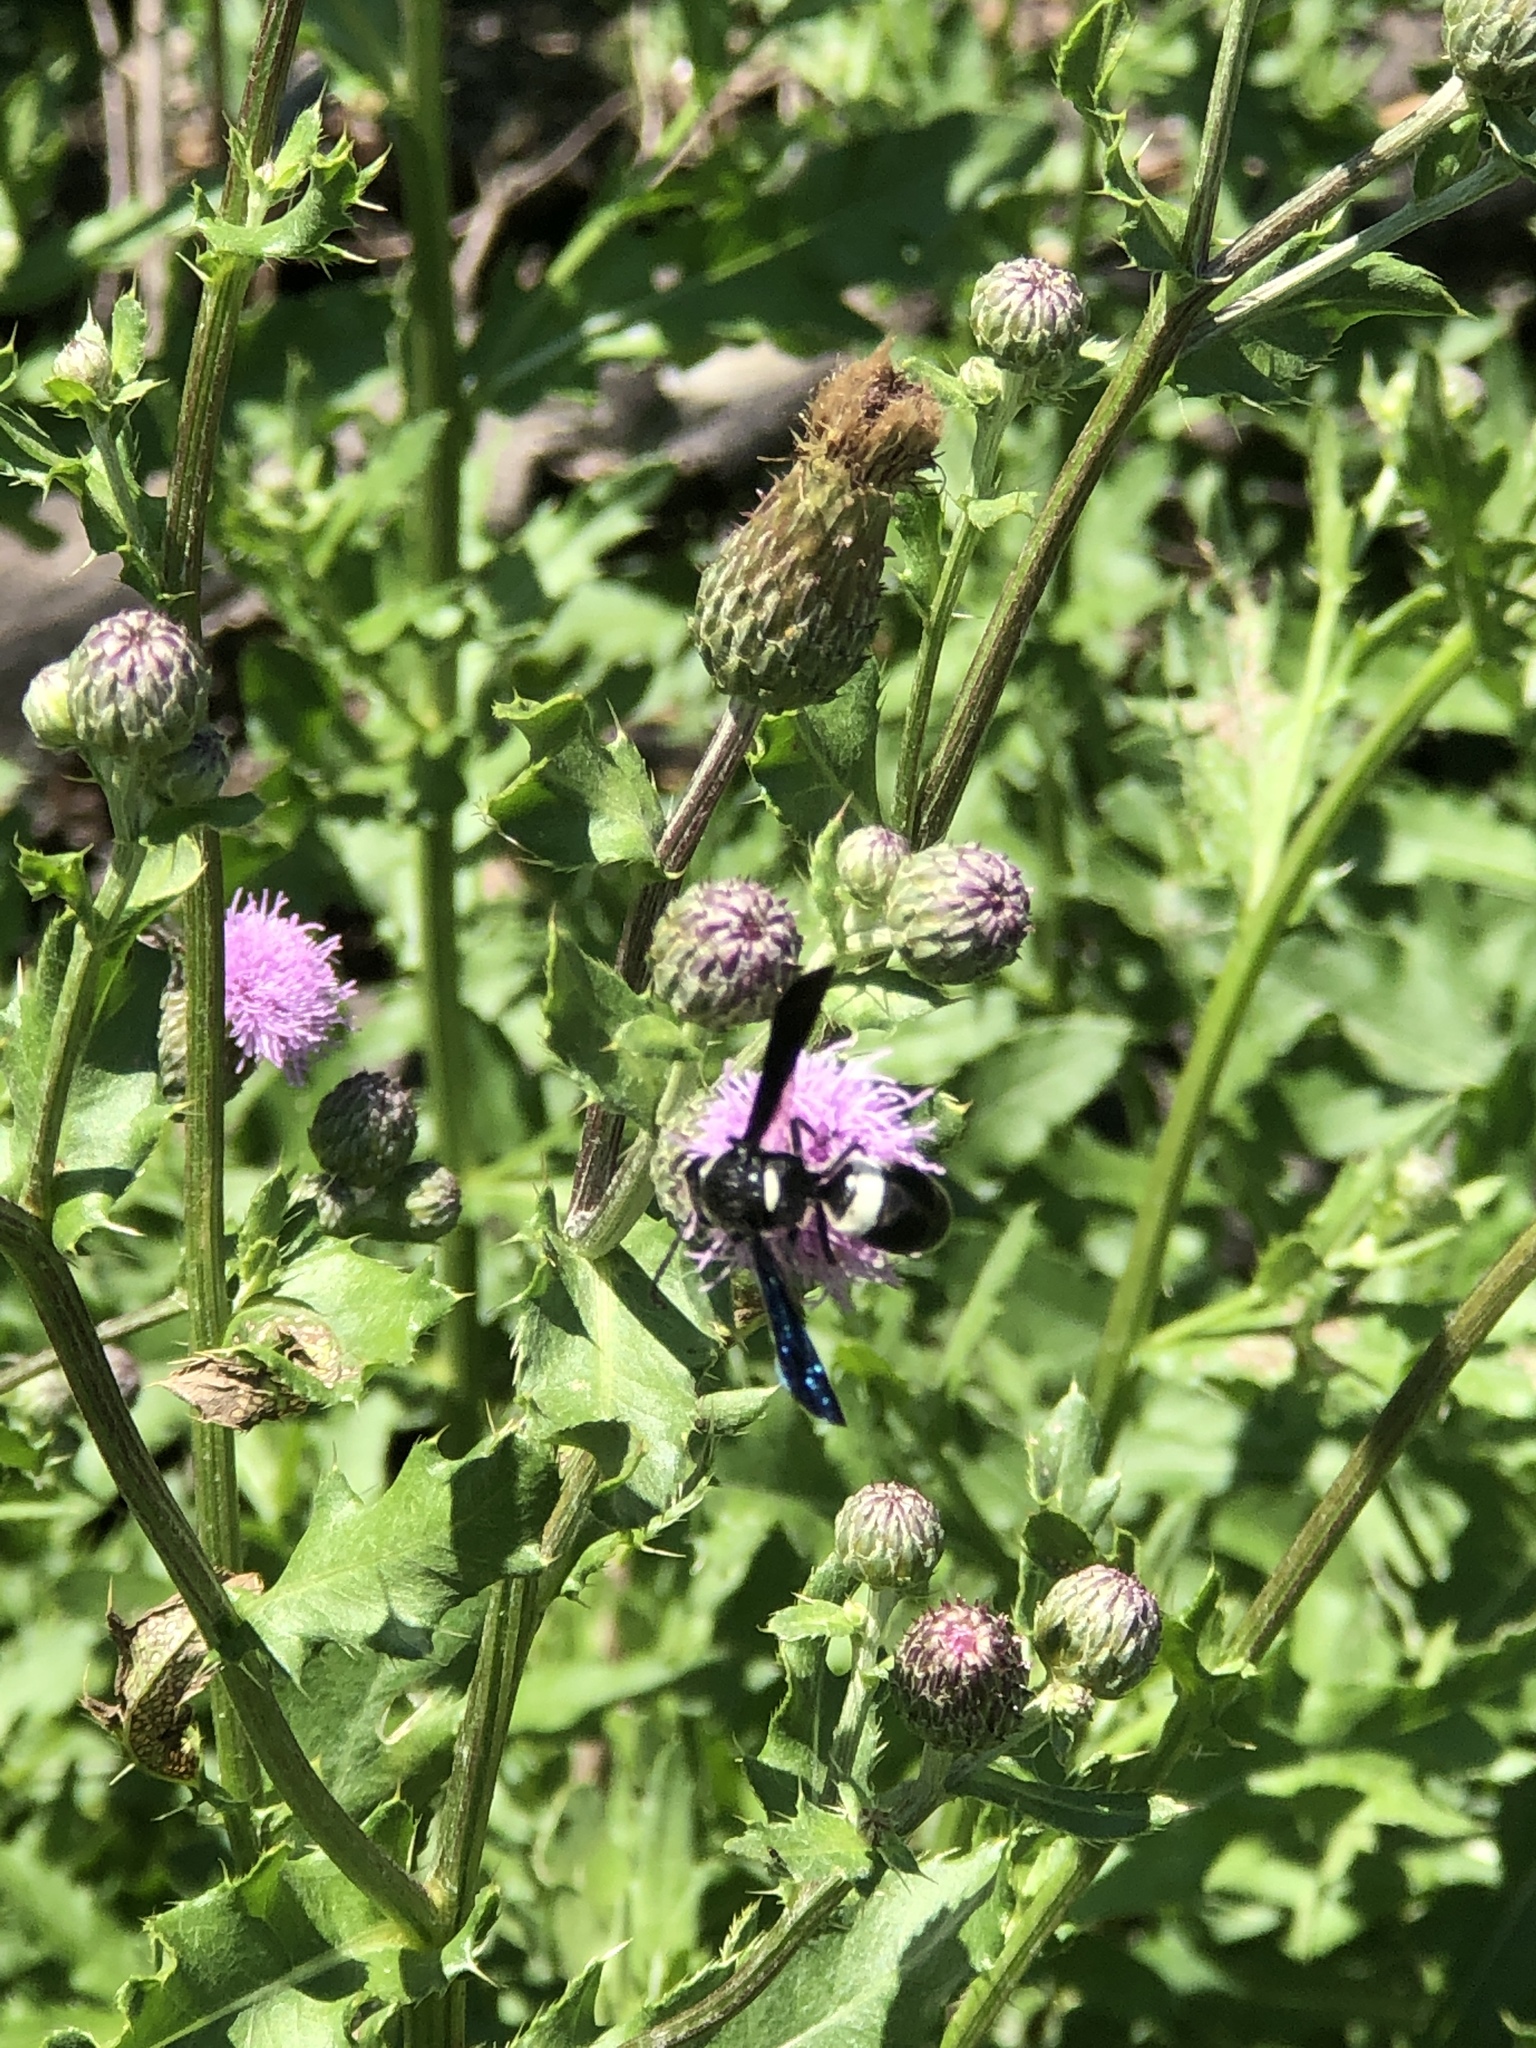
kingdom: Animalia
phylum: Arthropoda
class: Insecta
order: Hymenoptera
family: Eumenidae
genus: Monobia
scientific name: Monobia quadridens
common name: Four-toothed mason wasp
